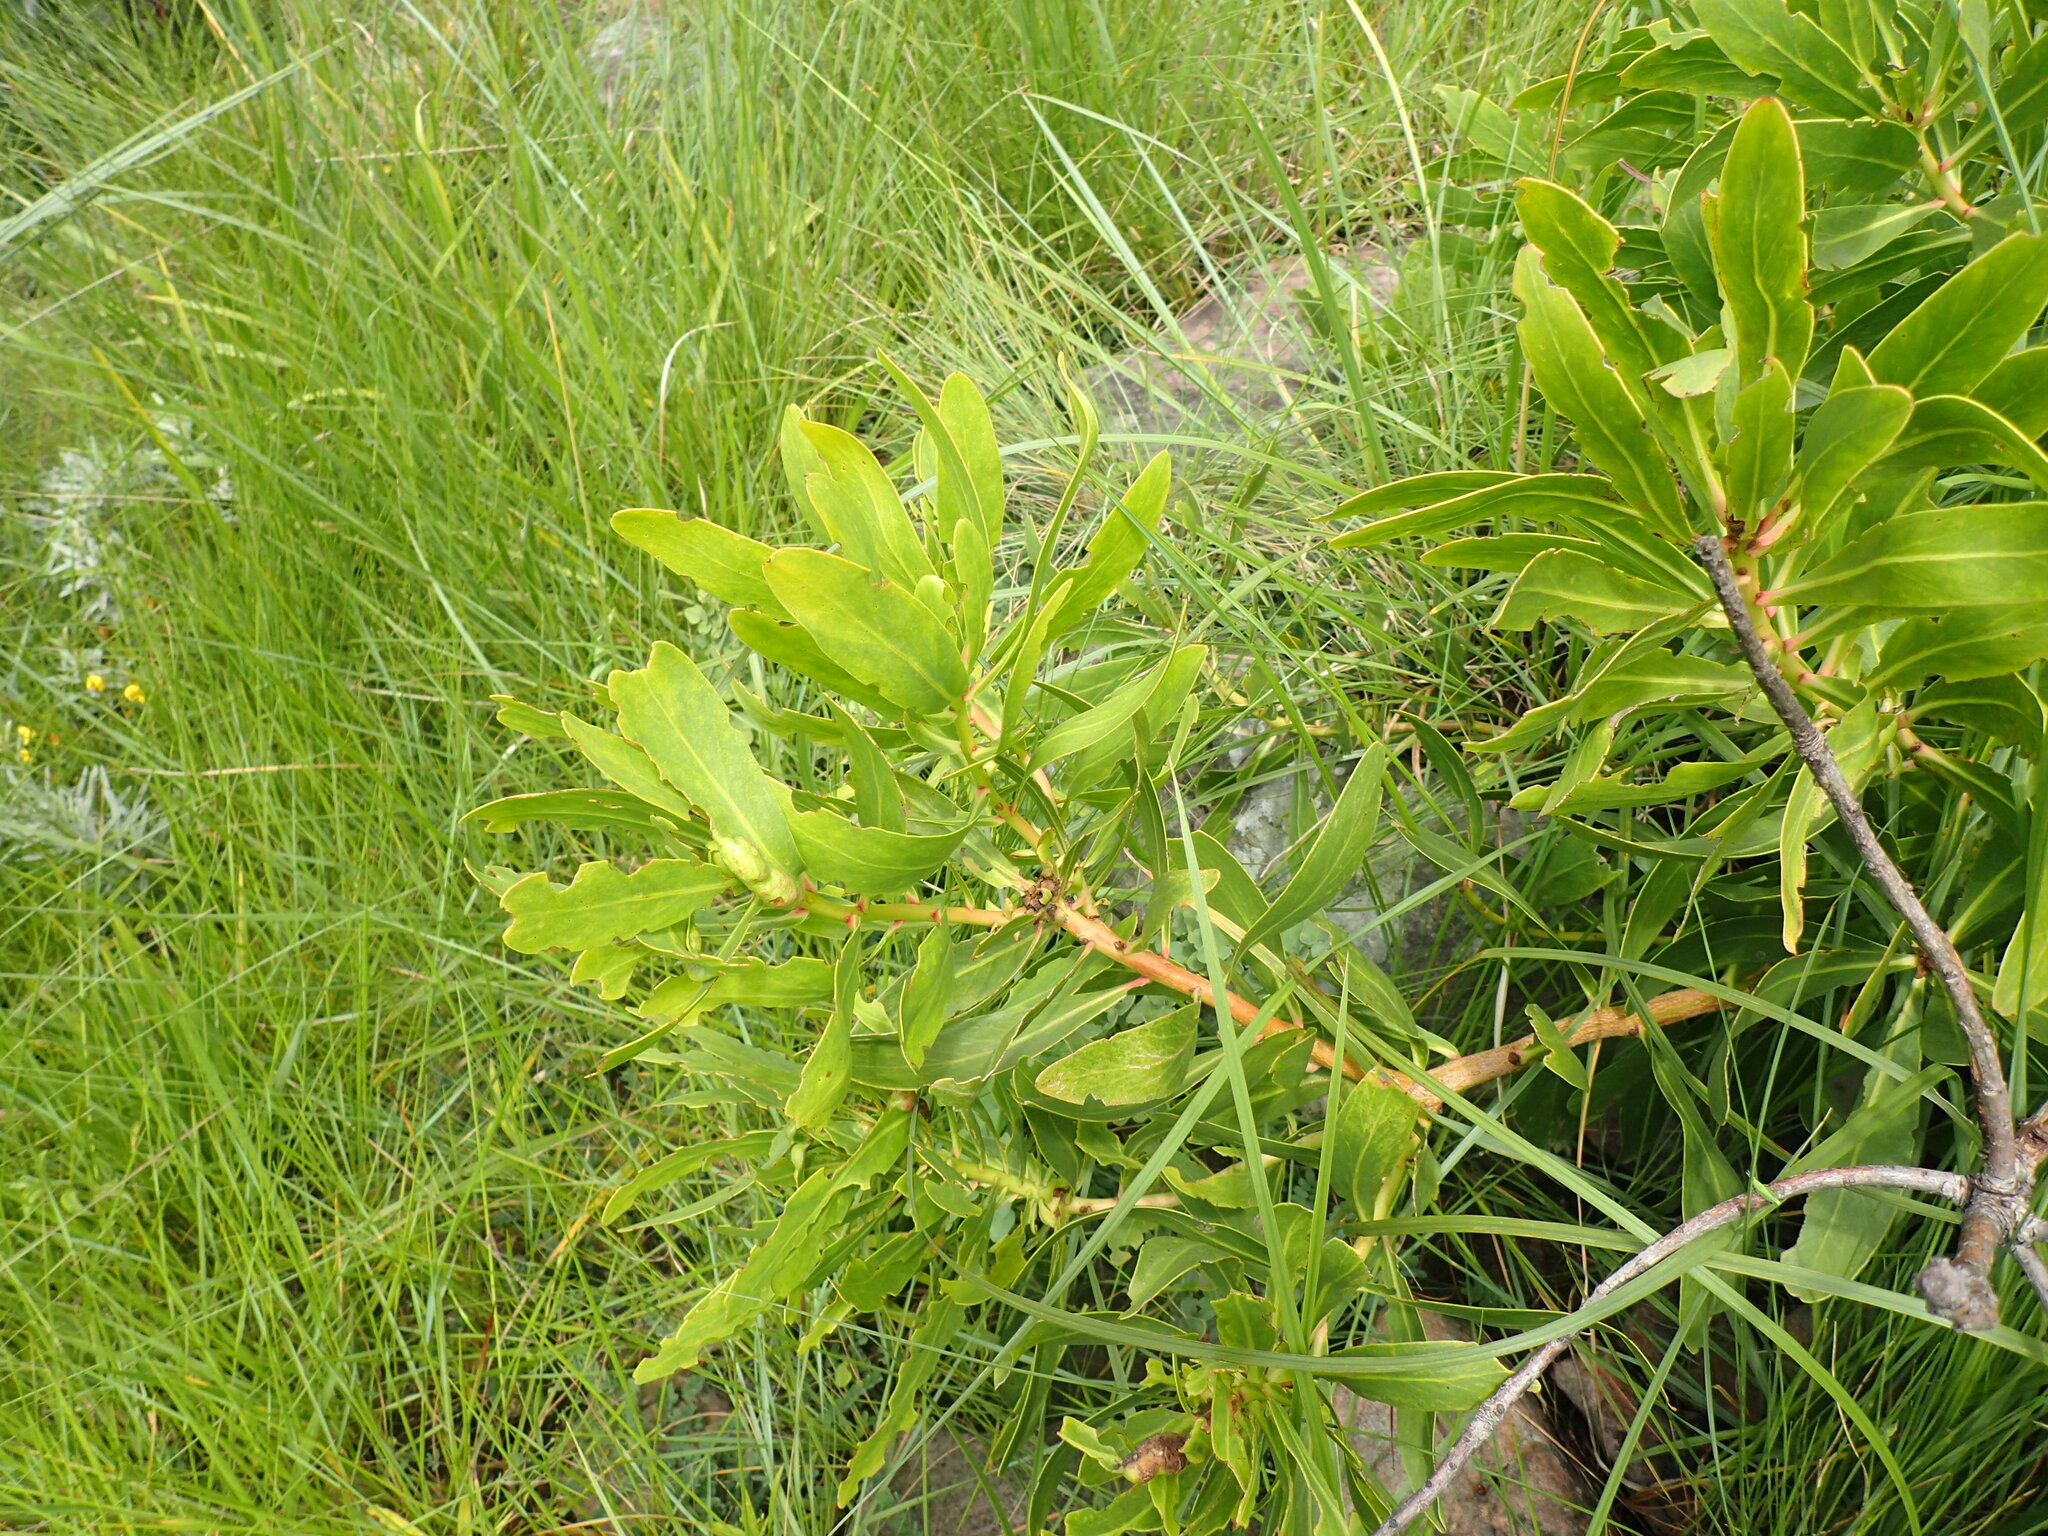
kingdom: Plantae
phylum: Tracheophyta
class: Magnoliopsida
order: Proteales
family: Proteaceae
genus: Protea
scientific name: Protea caffra
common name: Common sugarbush
